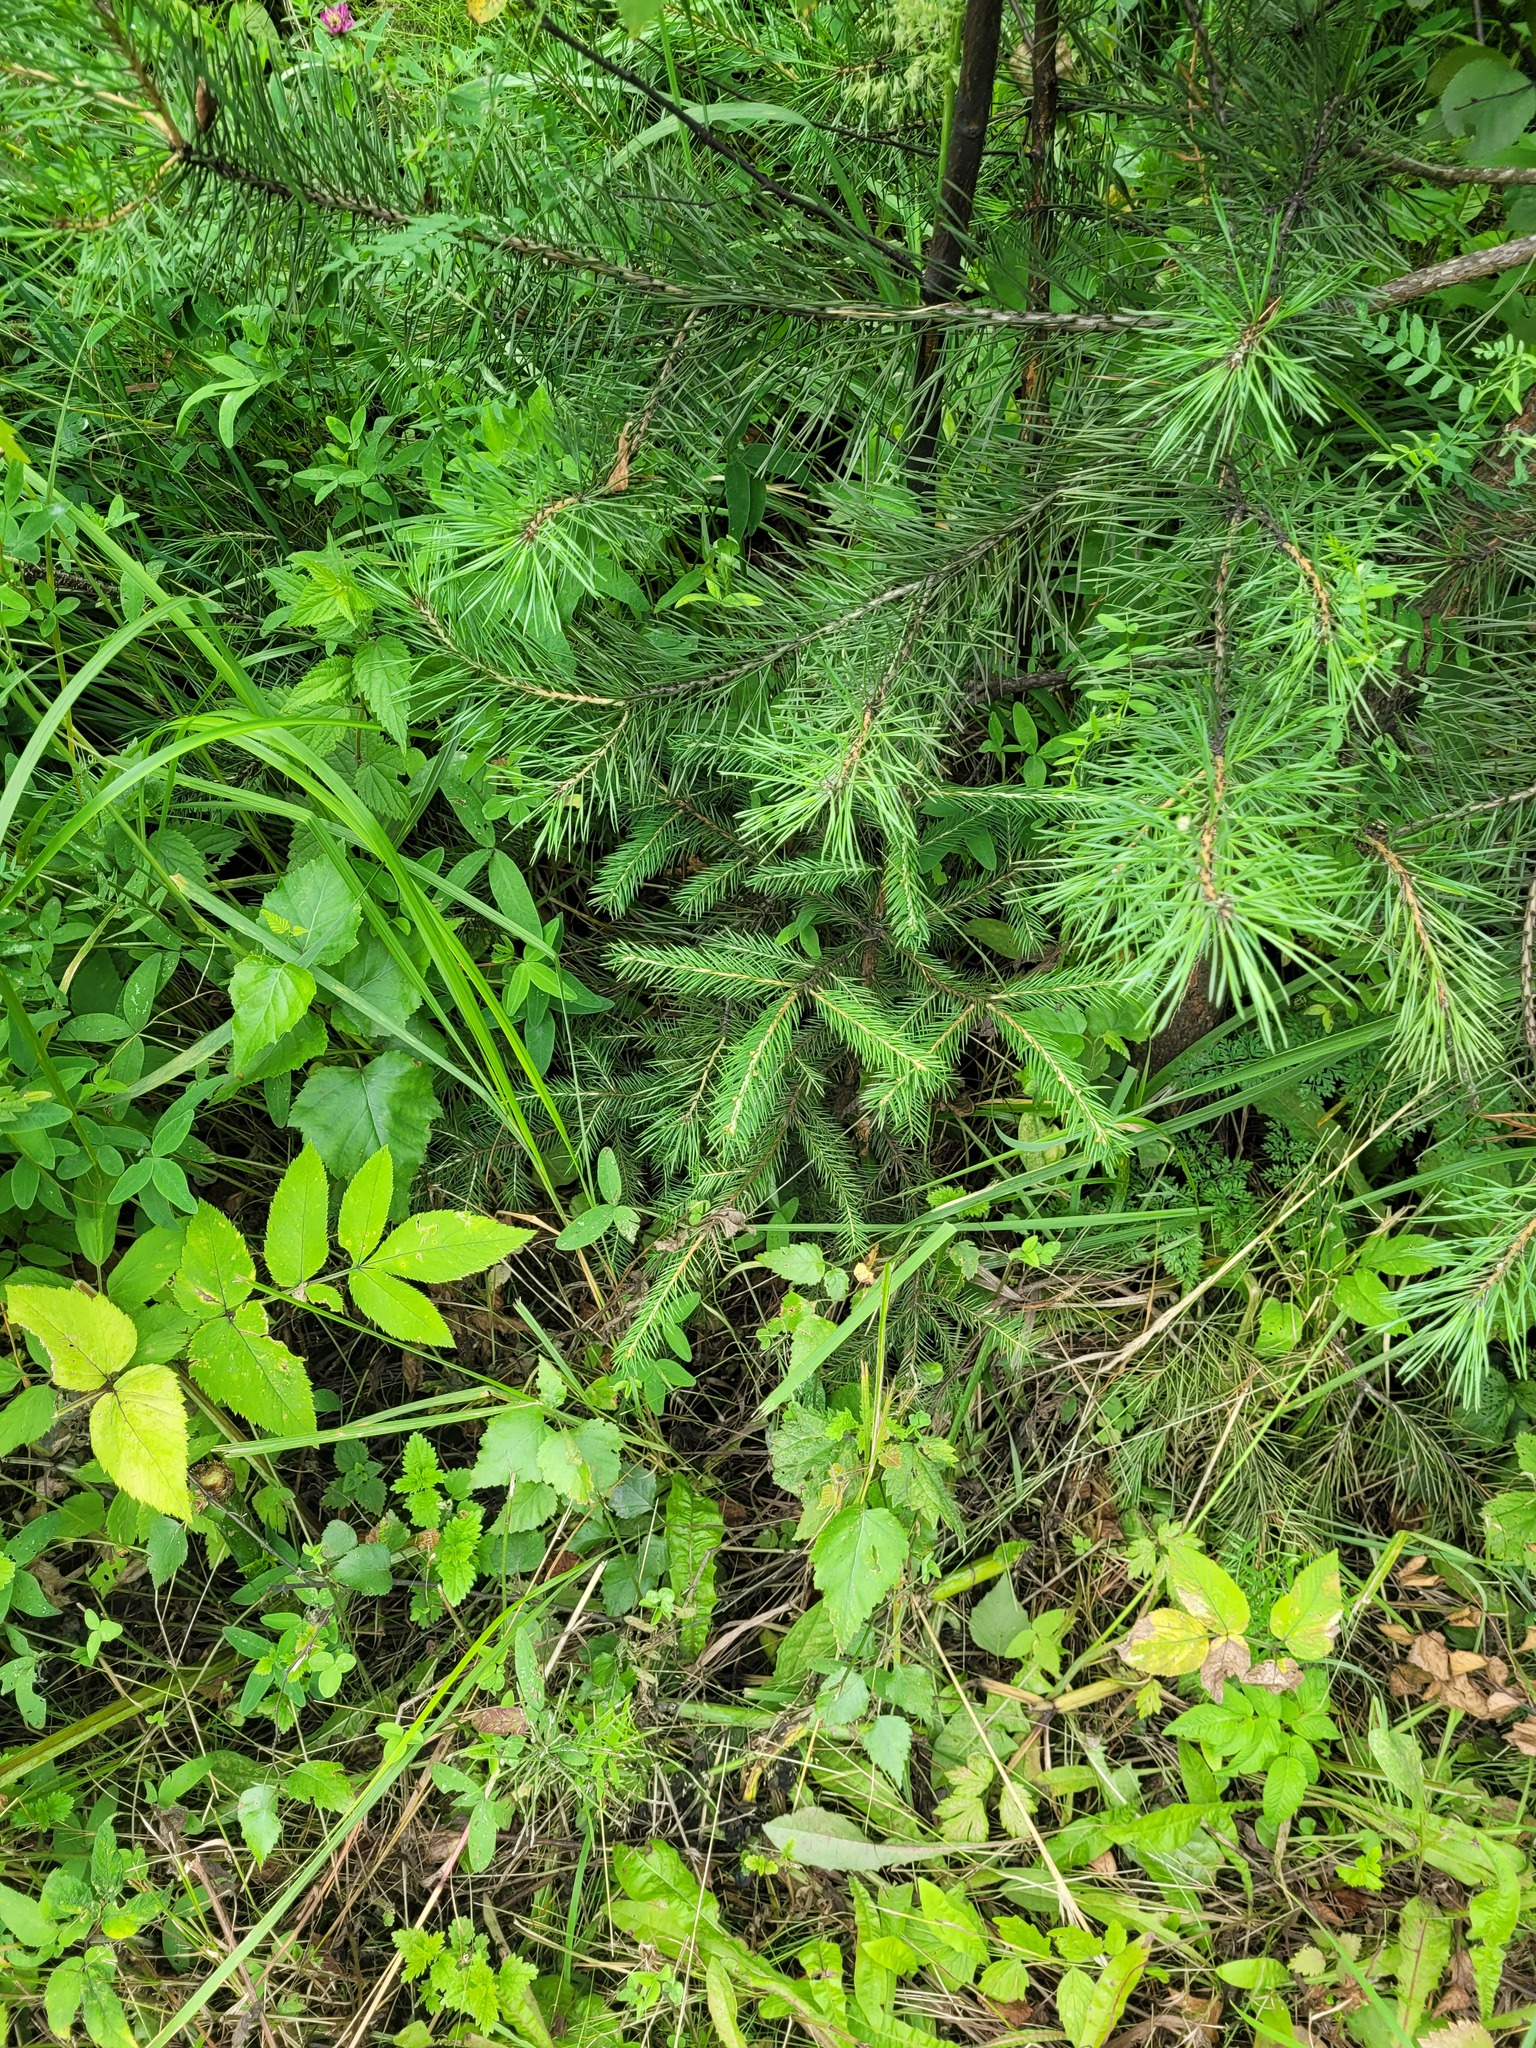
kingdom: Plantae
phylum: Tracheophyta
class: Pinopsida
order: Pinales
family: Pinaceae
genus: Picea
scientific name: Picea abies
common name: Norway spruce
